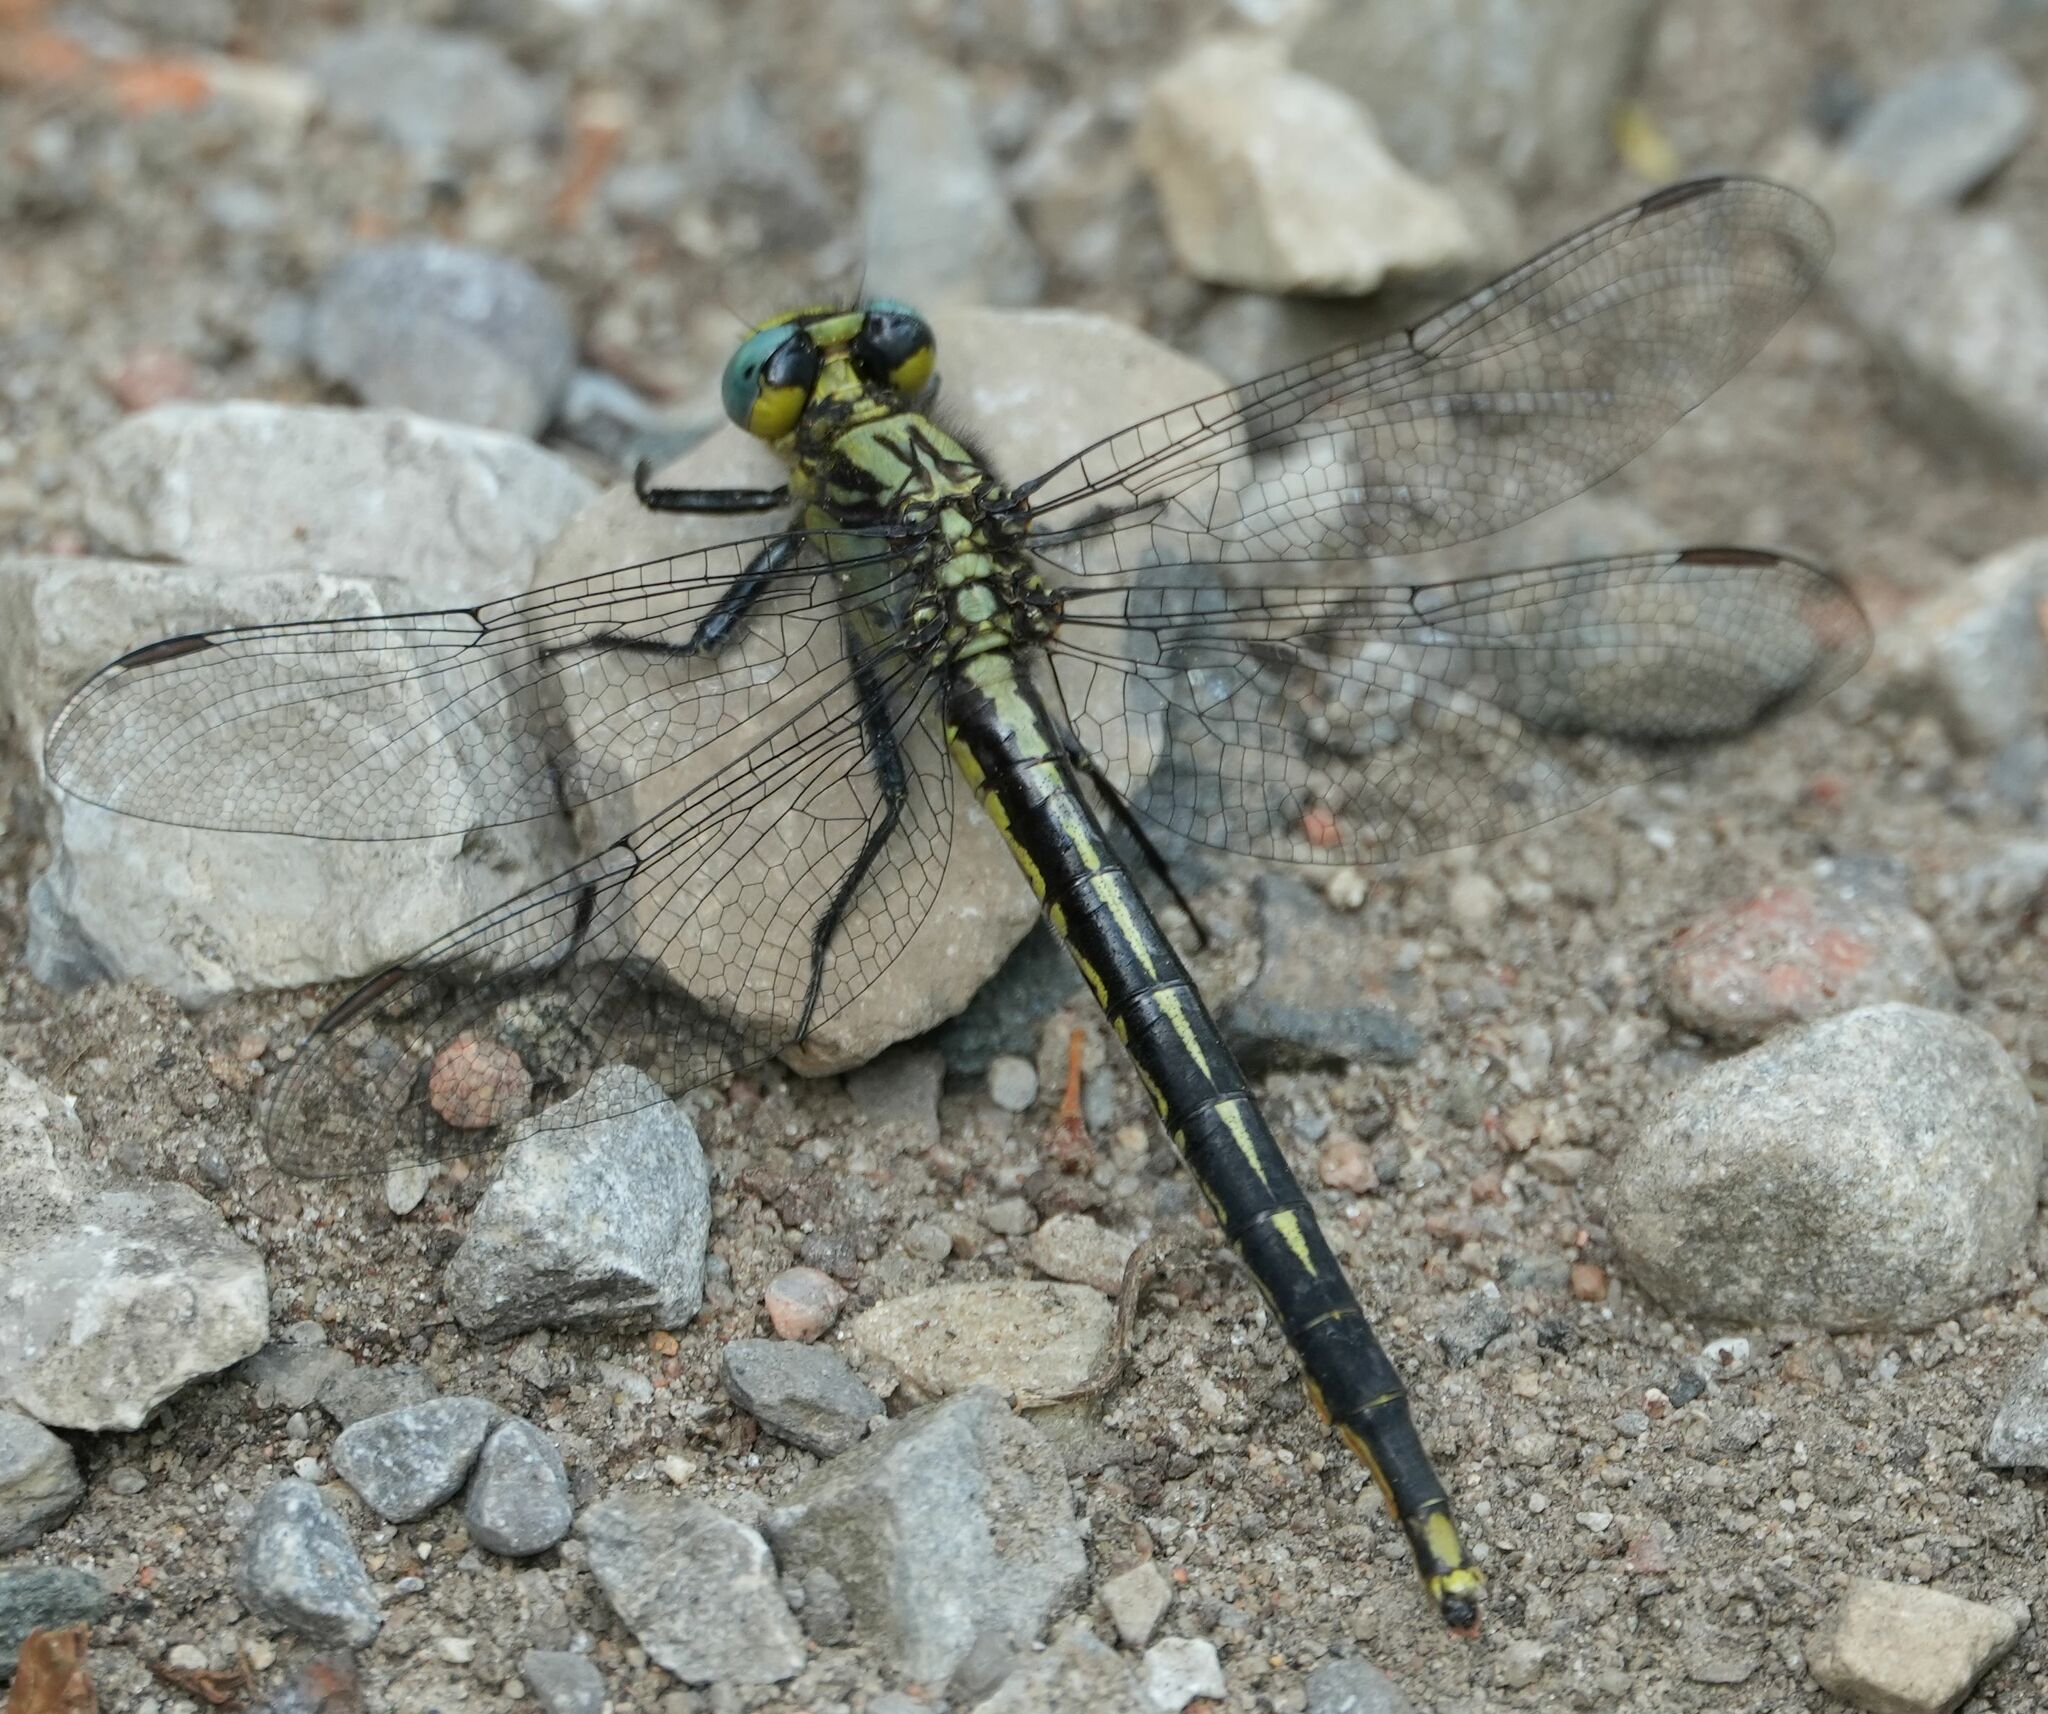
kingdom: Animalia
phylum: Arthropoda
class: Insecta
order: Odonata
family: Gomphidae
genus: Arigomphus
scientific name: Arigomphus furcifer
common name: Lilypad clubtail
